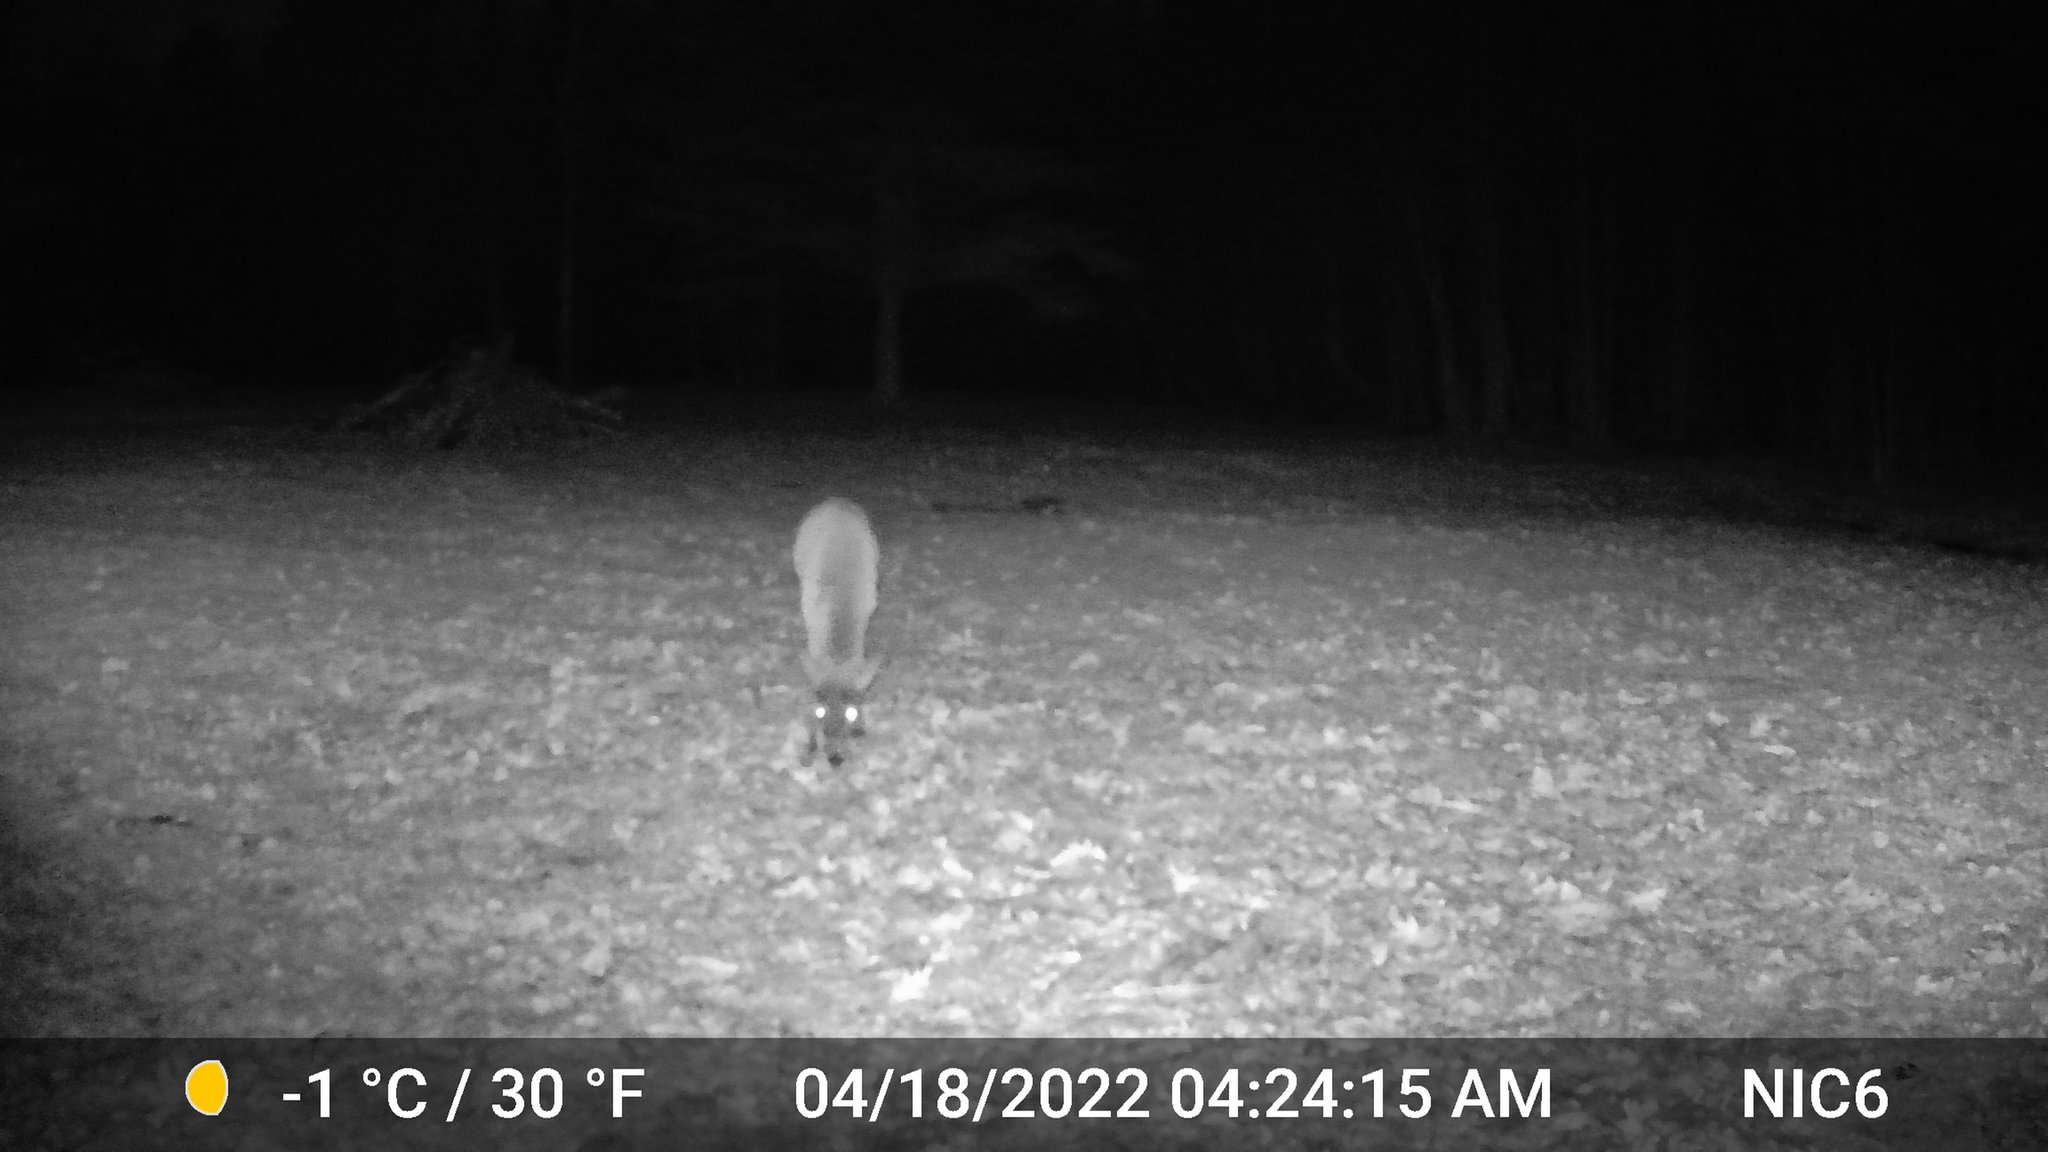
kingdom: Animalia
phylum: Chordata
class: Mammalia
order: Artiodactyla
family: Cervidae
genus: Odocoileus
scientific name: Odocoileus virginianus
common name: White-tailed deer
